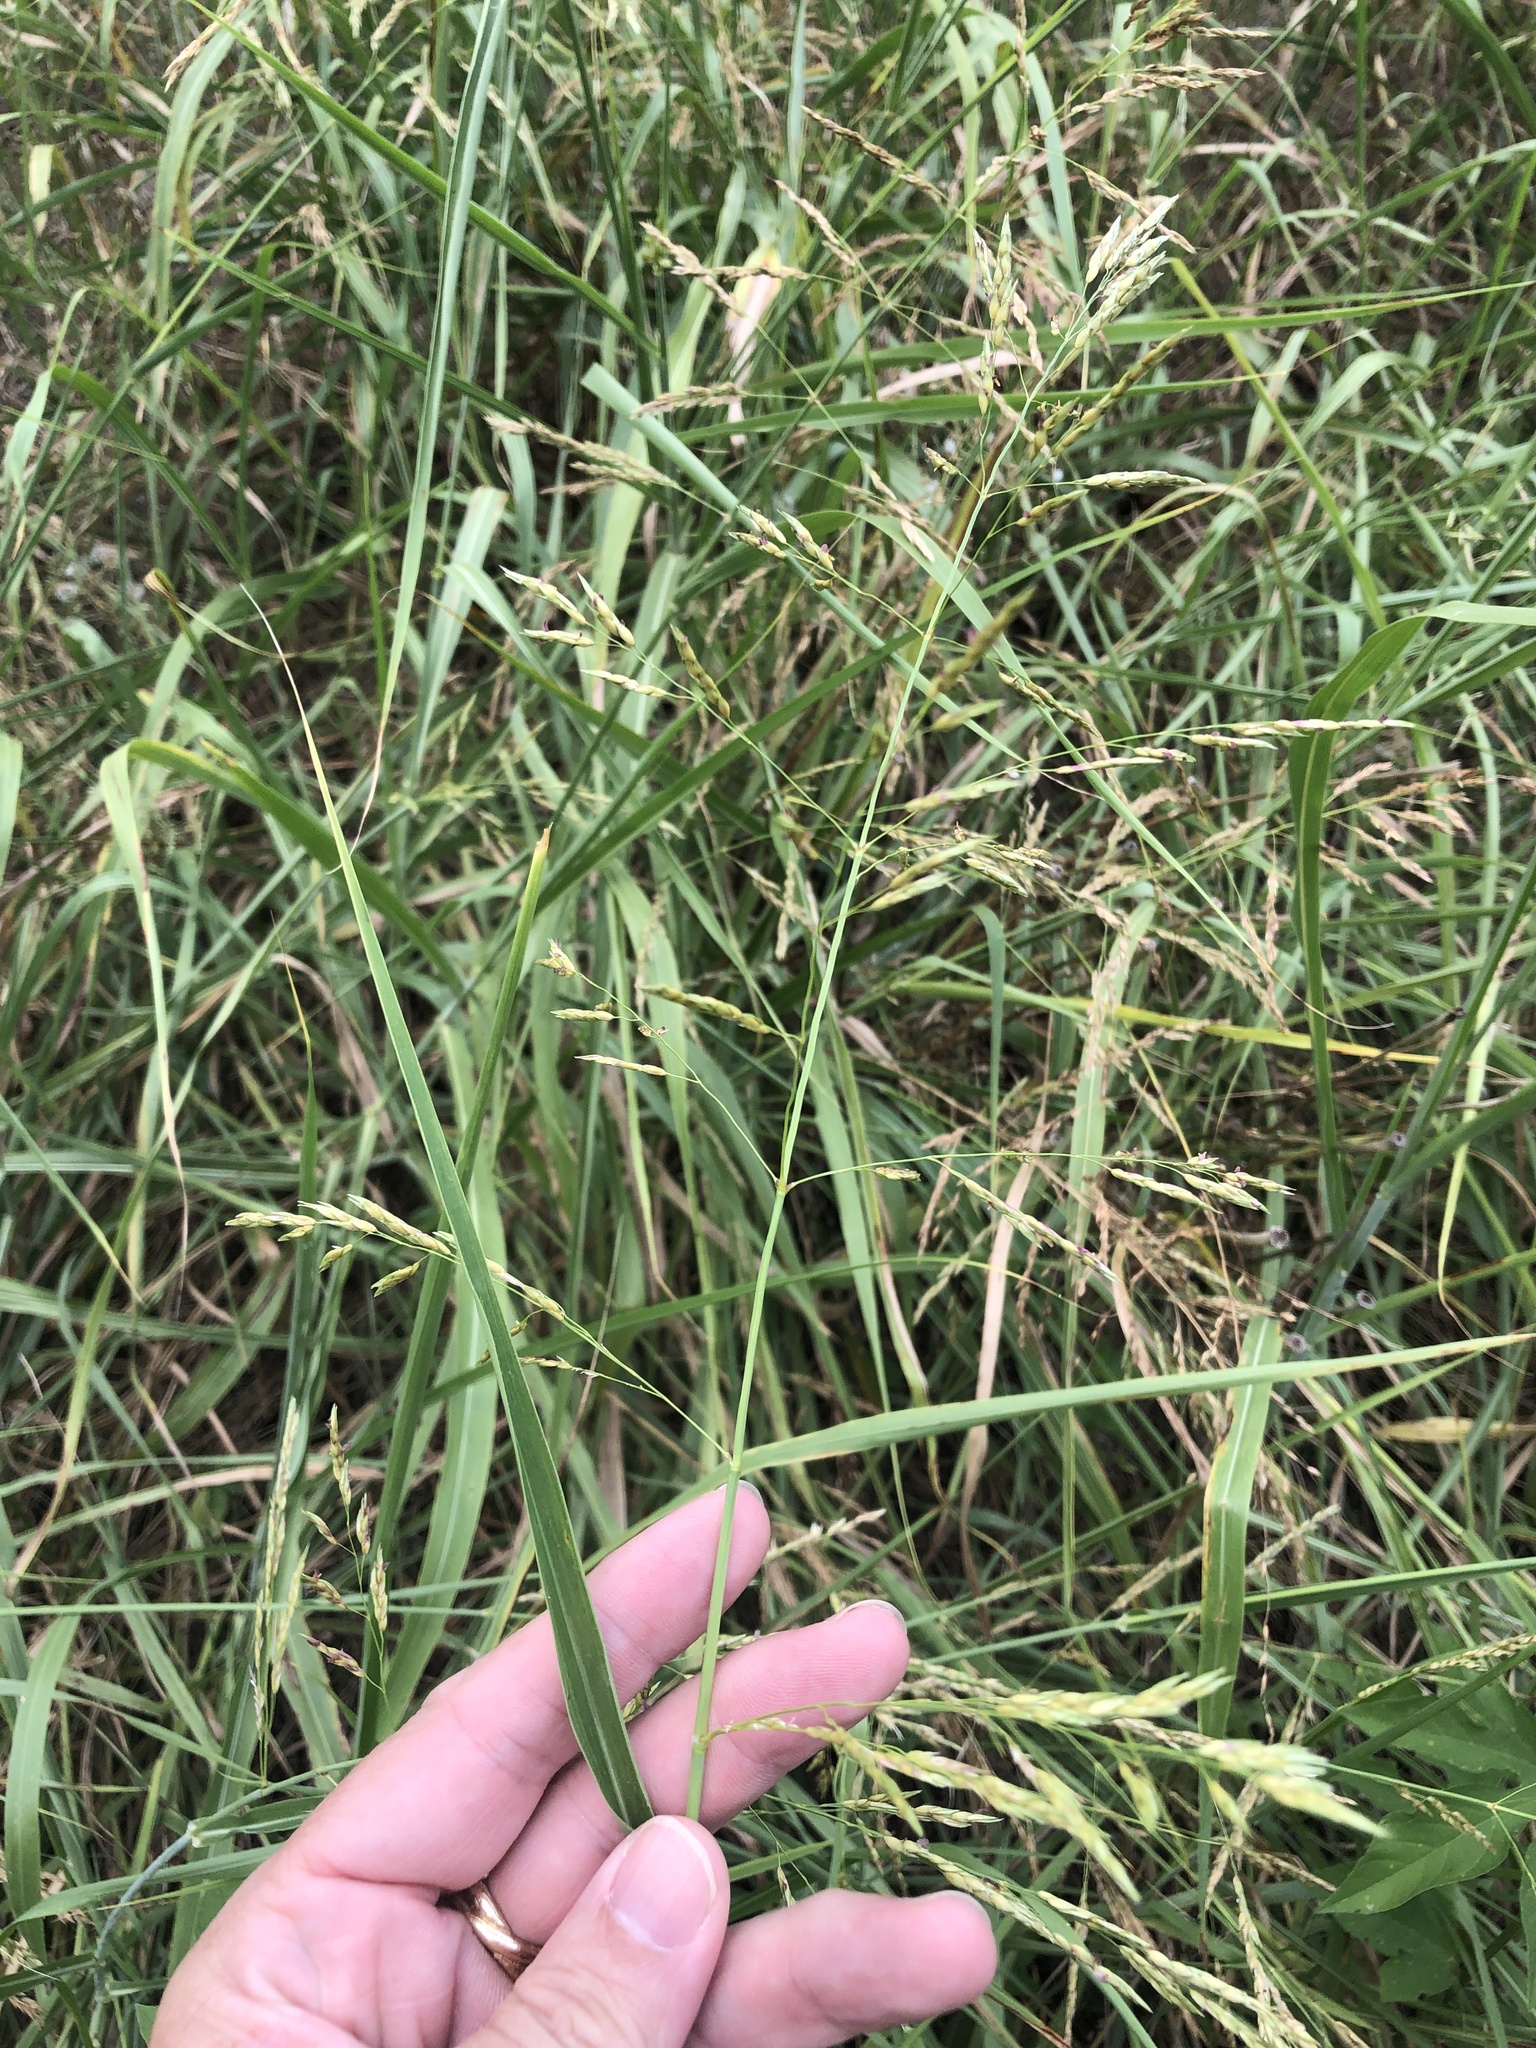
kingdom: Plantae
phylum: Tracheophyta
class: Liliopsida
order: Poales
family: Poaceae
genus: Sorghum
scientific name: Sorghum halepense
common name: Johnson-grass
